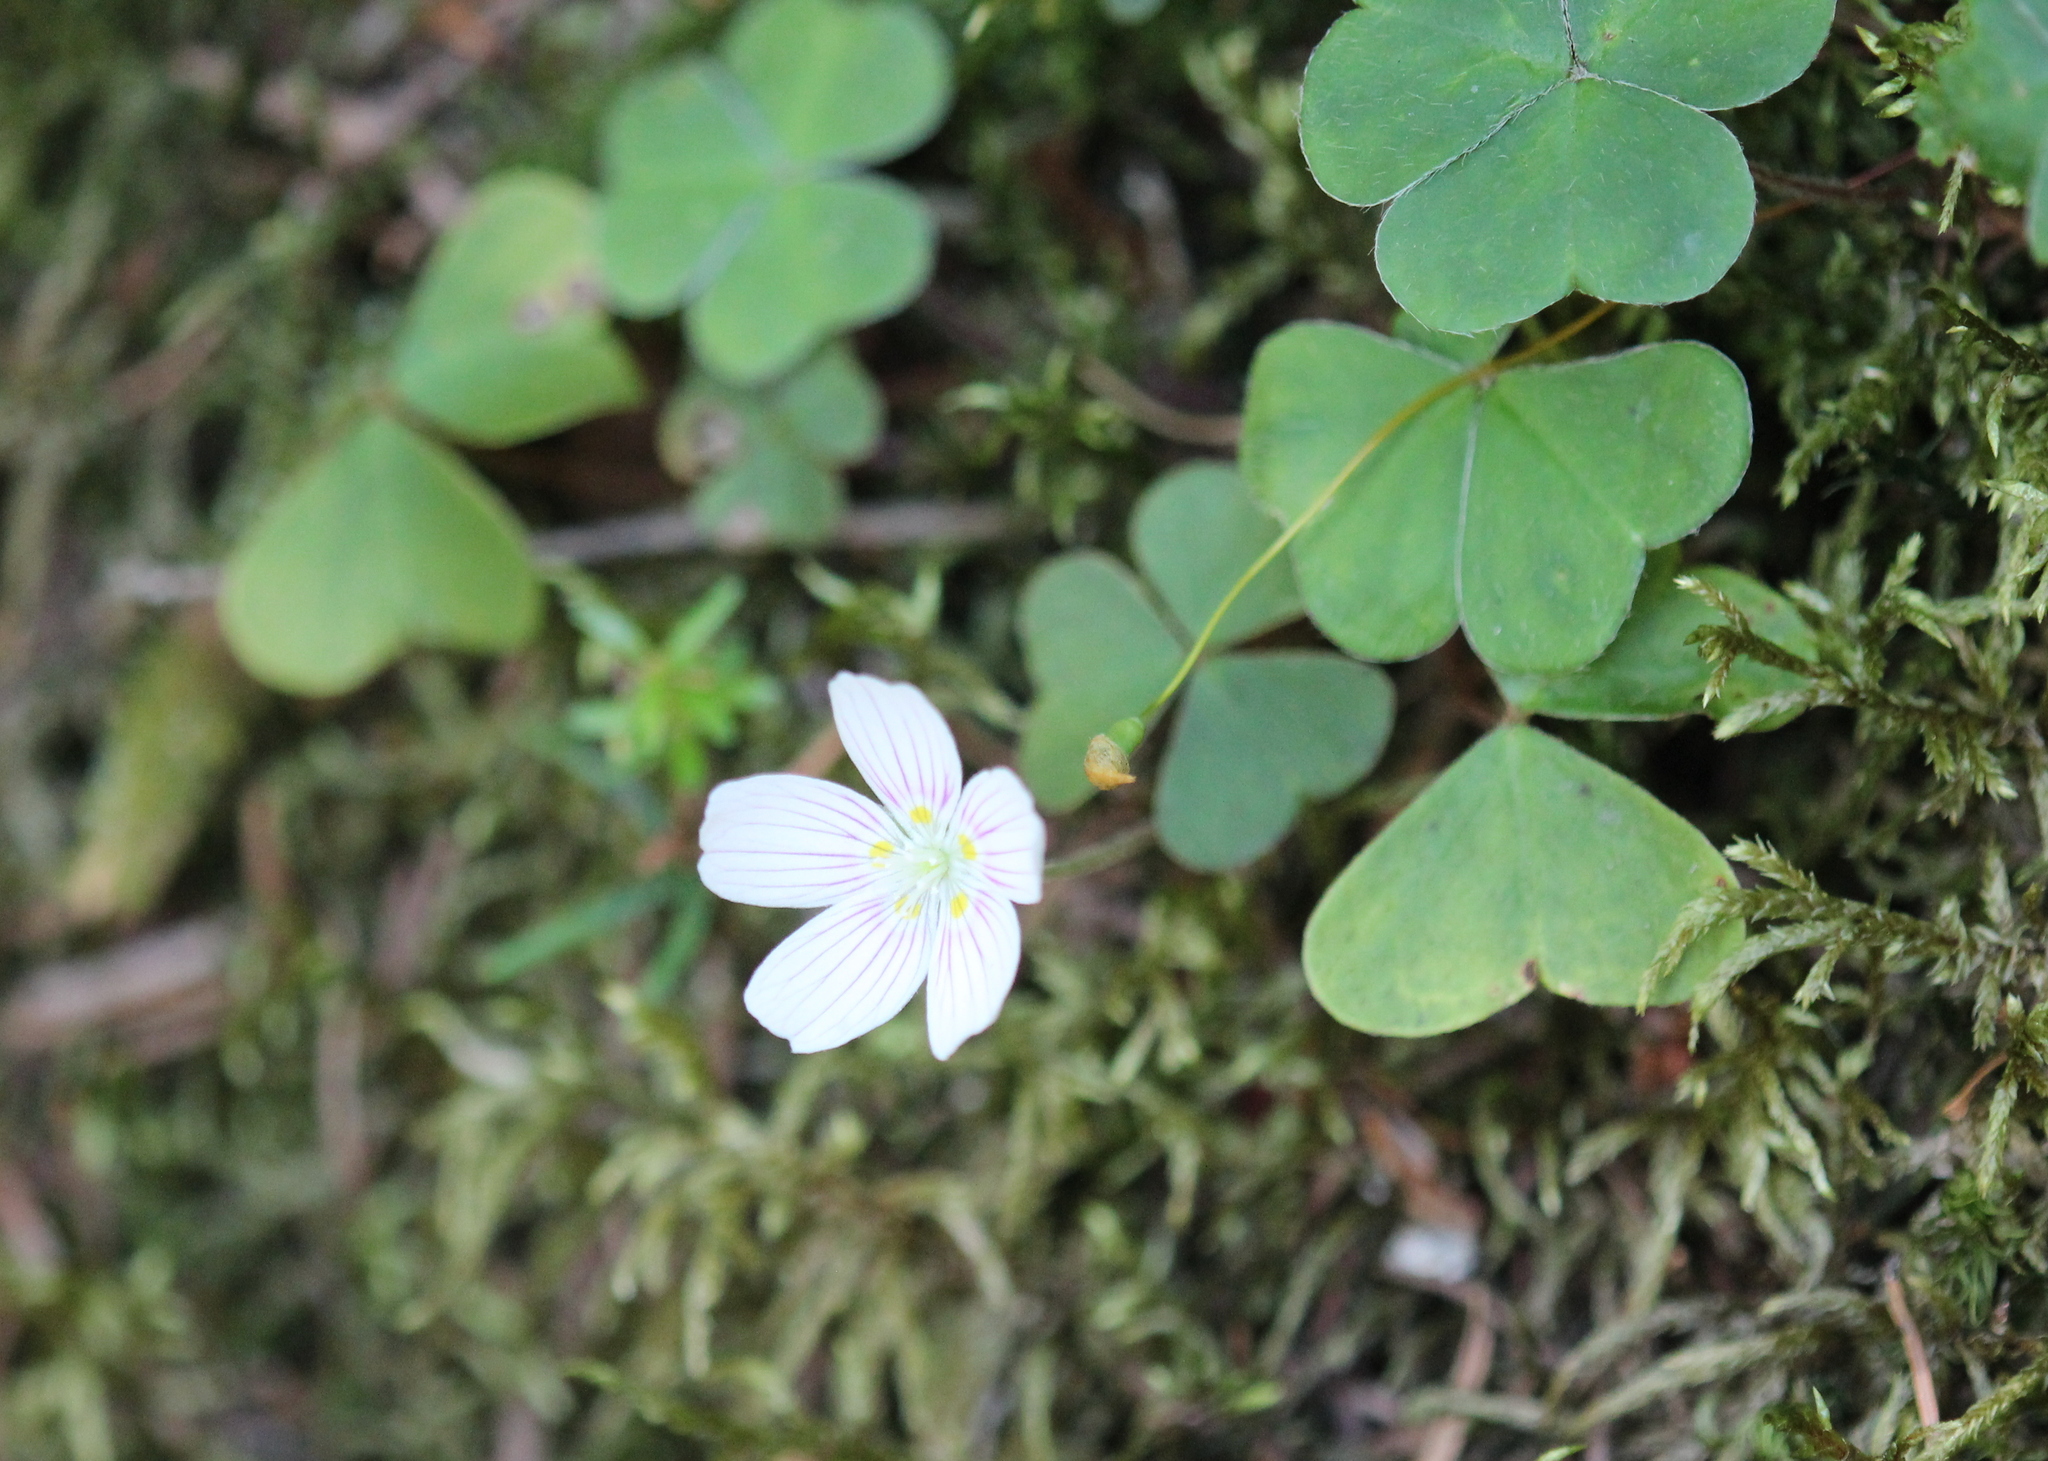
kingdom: Plantae
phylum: Tracheophyta
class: Magnoliopsida
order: Oxalidales
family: Oxalidaceae
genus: Oxalis
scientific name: Oxalis montana
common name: American wood-sorrel
